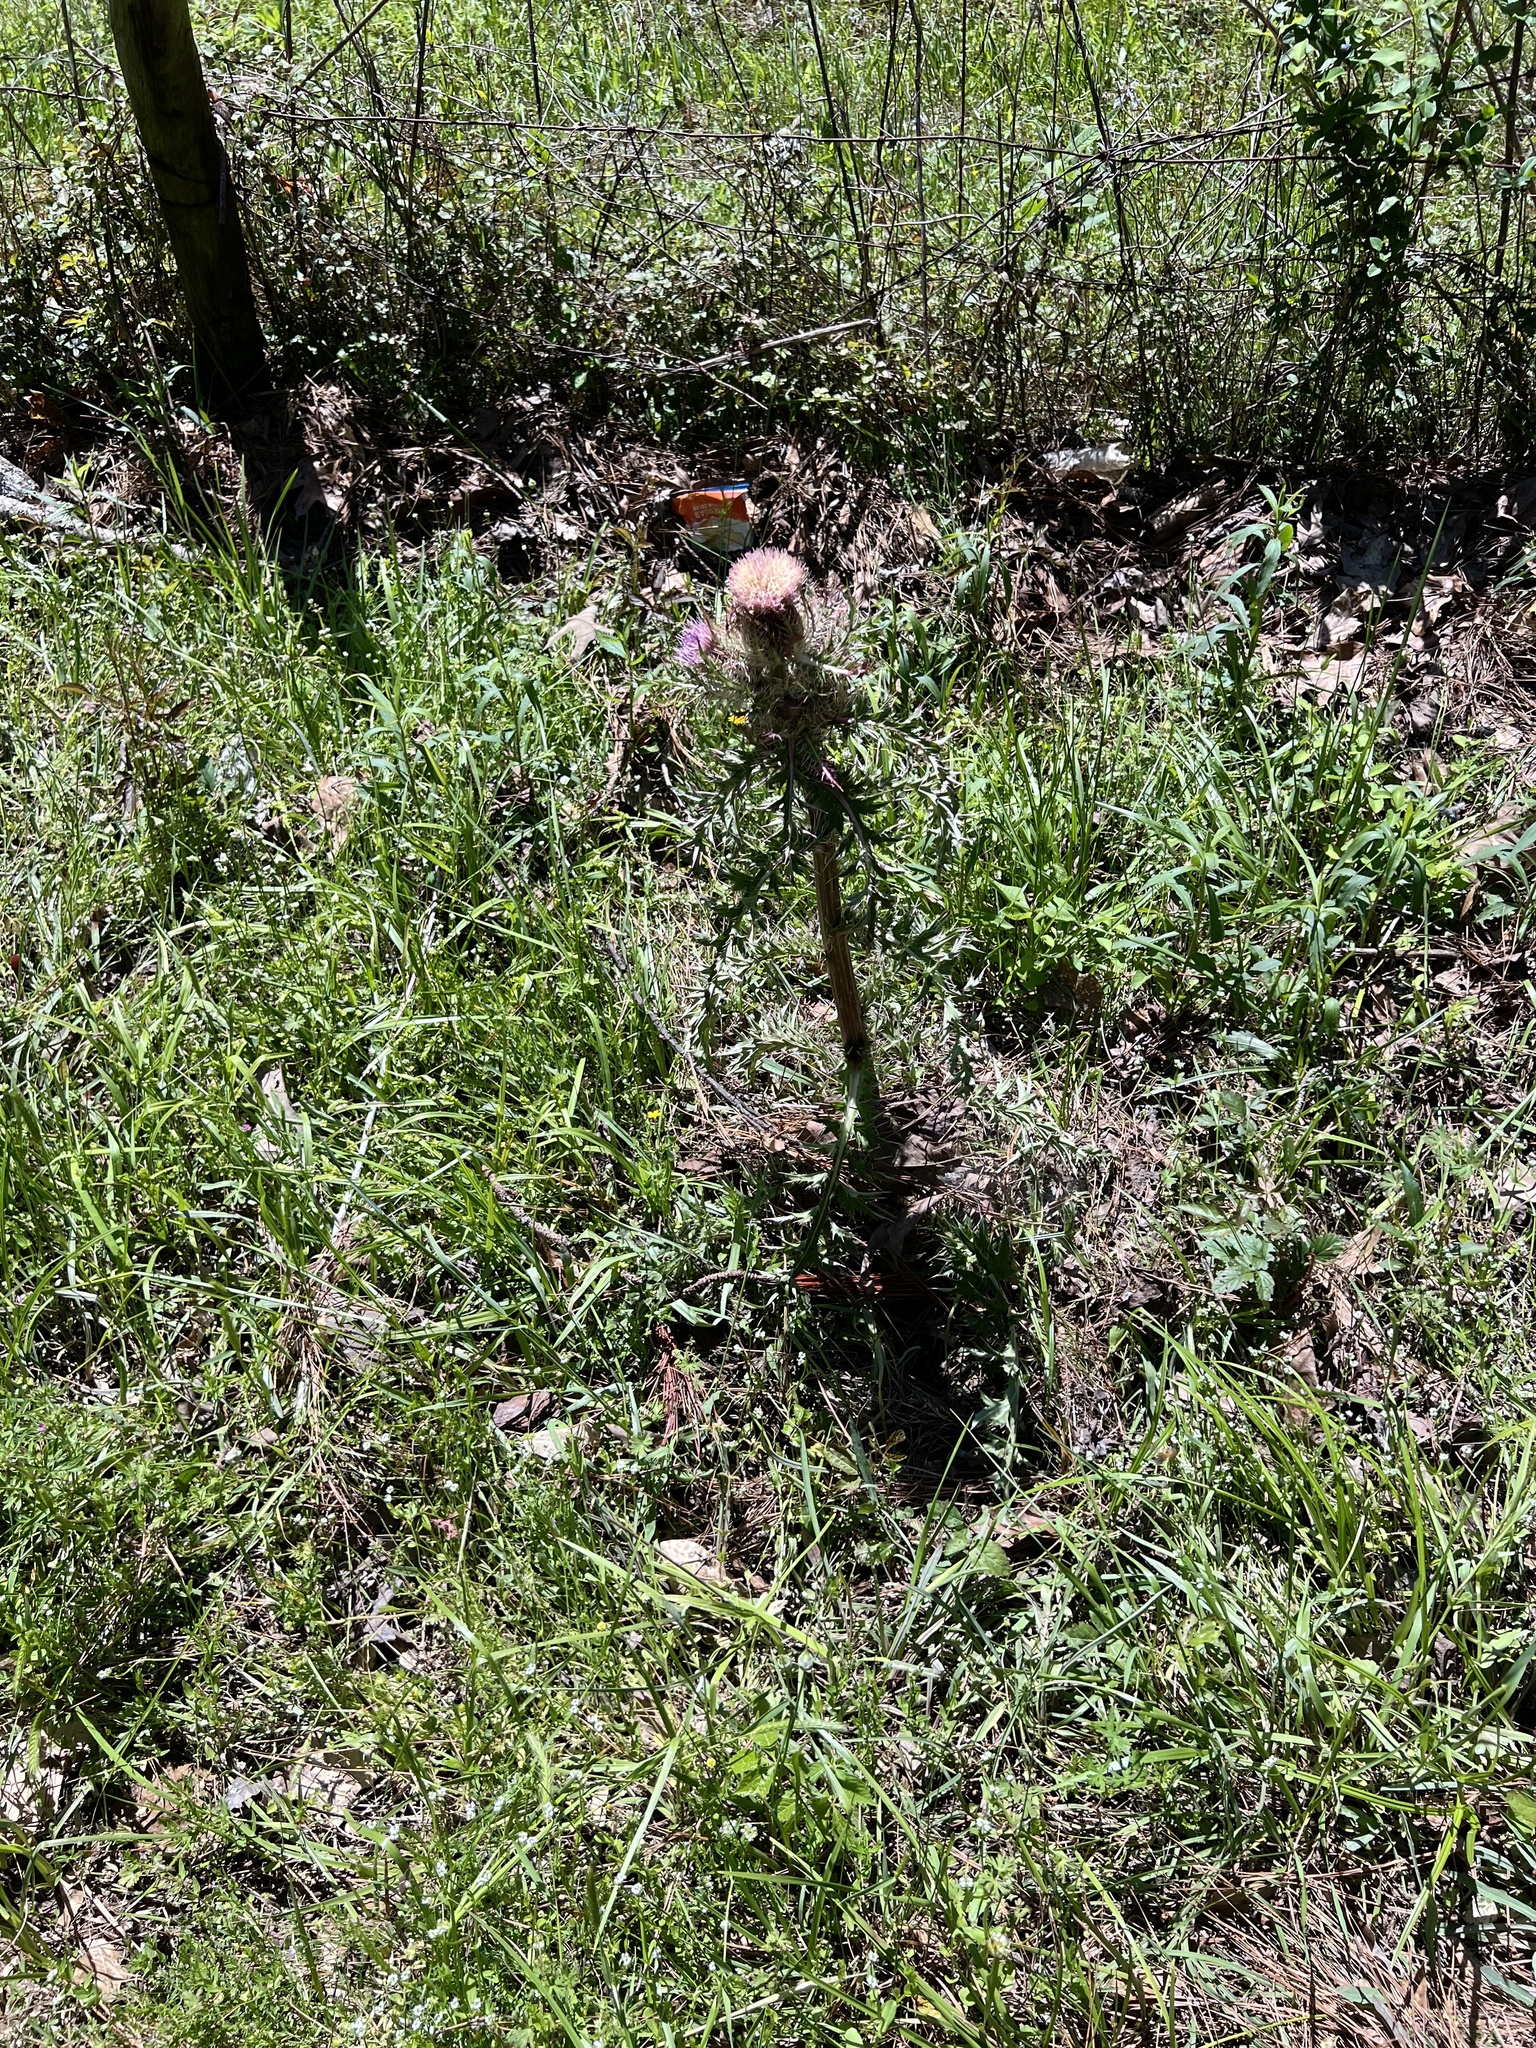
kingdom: Plantae
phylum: Tracheophyta
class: Magnoliopsida
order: Asterales
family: Asteraceae
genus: Cirsium
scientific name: Cirsium horridulum
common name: Bristly thistle
